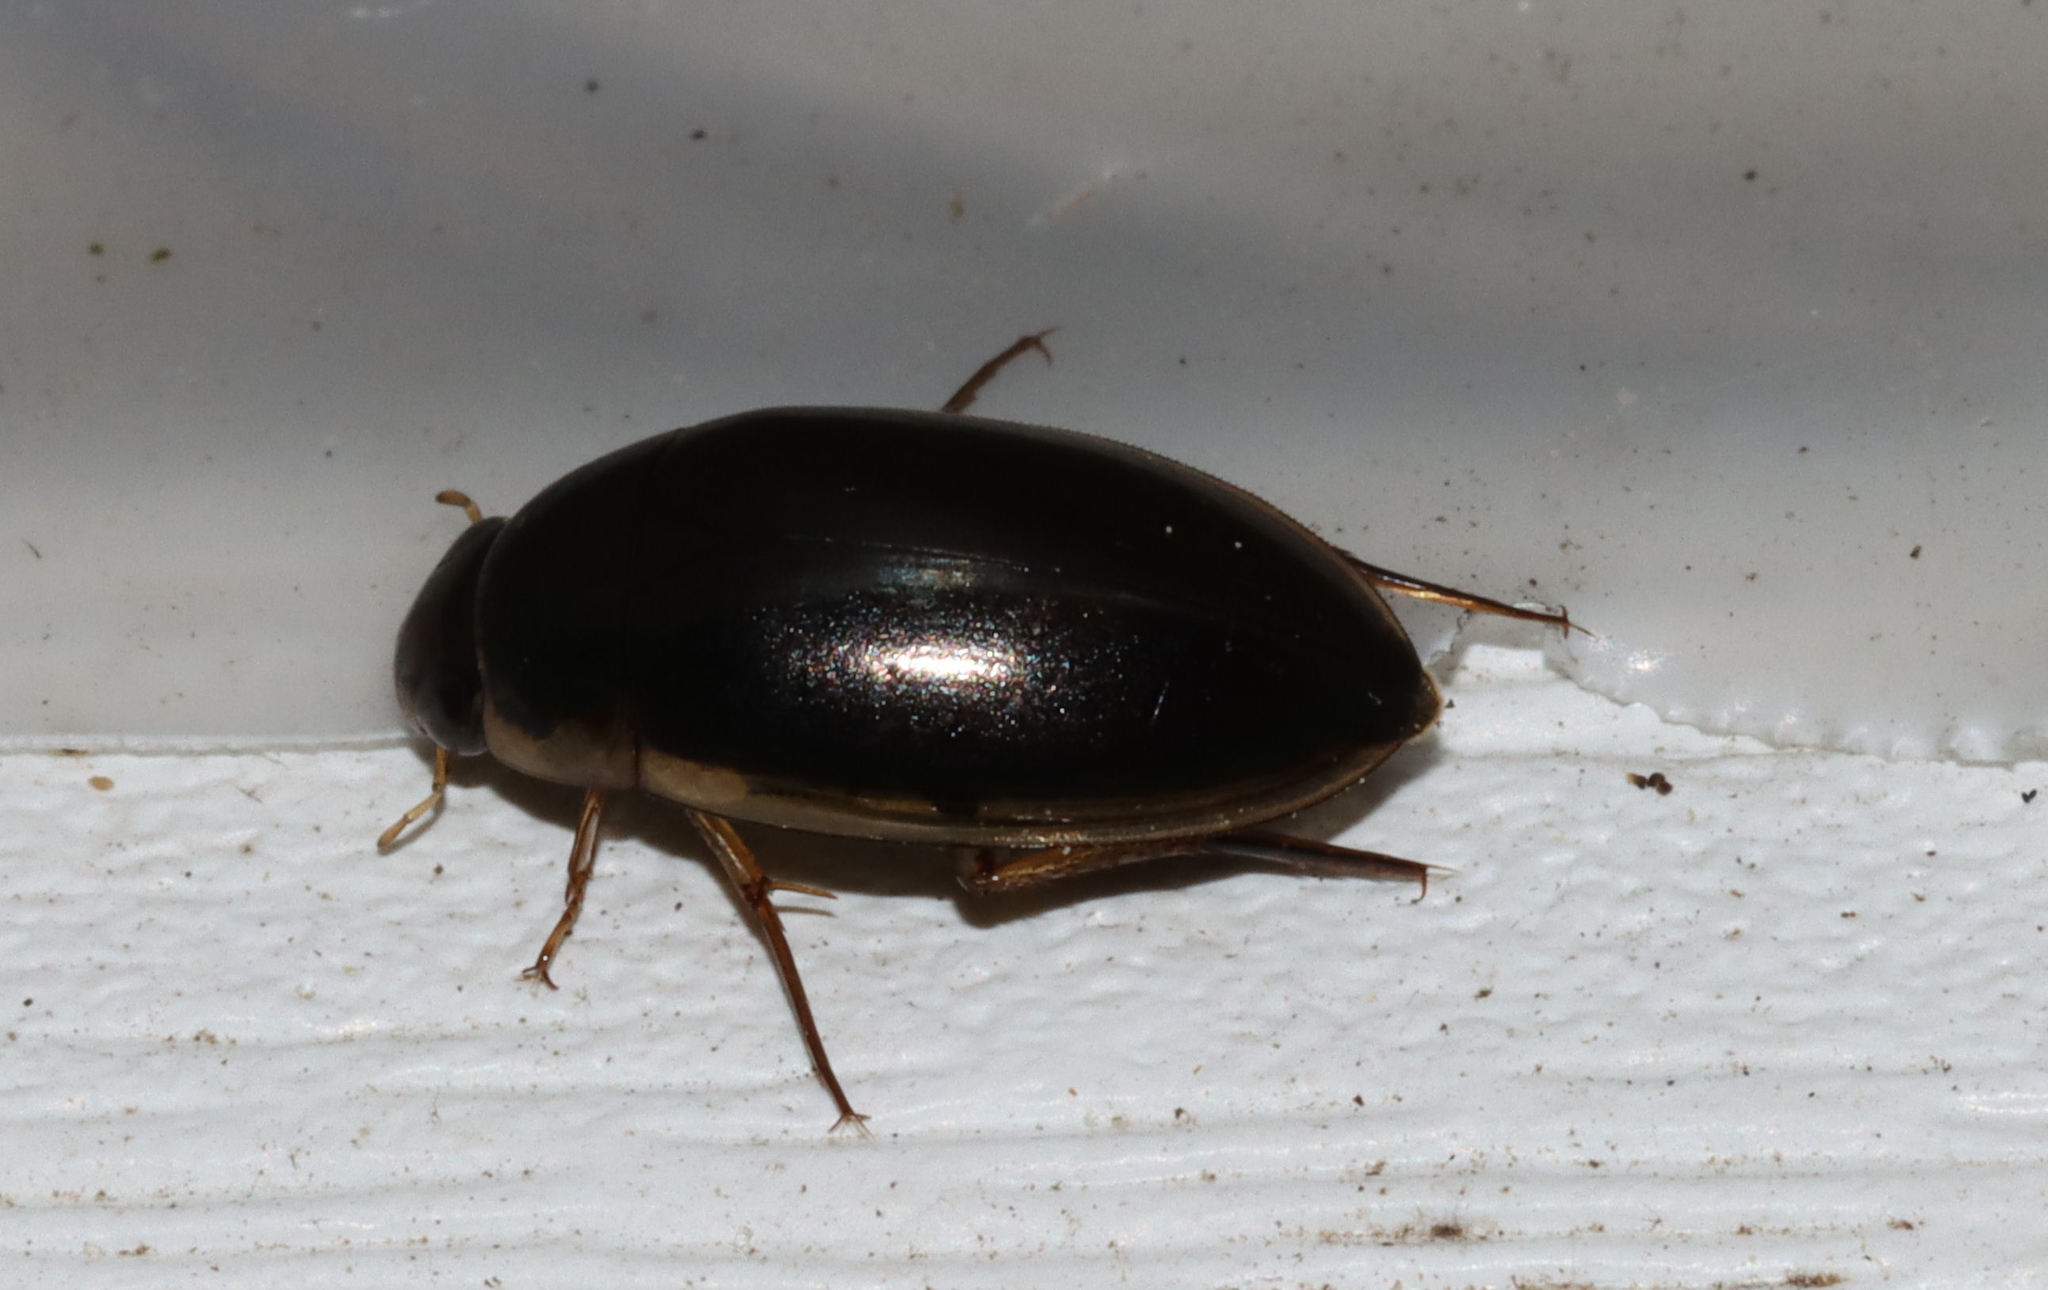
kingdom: Animalia
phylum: Arthropoda
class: Insecta
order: Coleoptera
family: Hydrophilidae
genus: Tropisternus
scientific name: Tropisternus lateralis
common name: Lateral-banded water scavenger beetle
